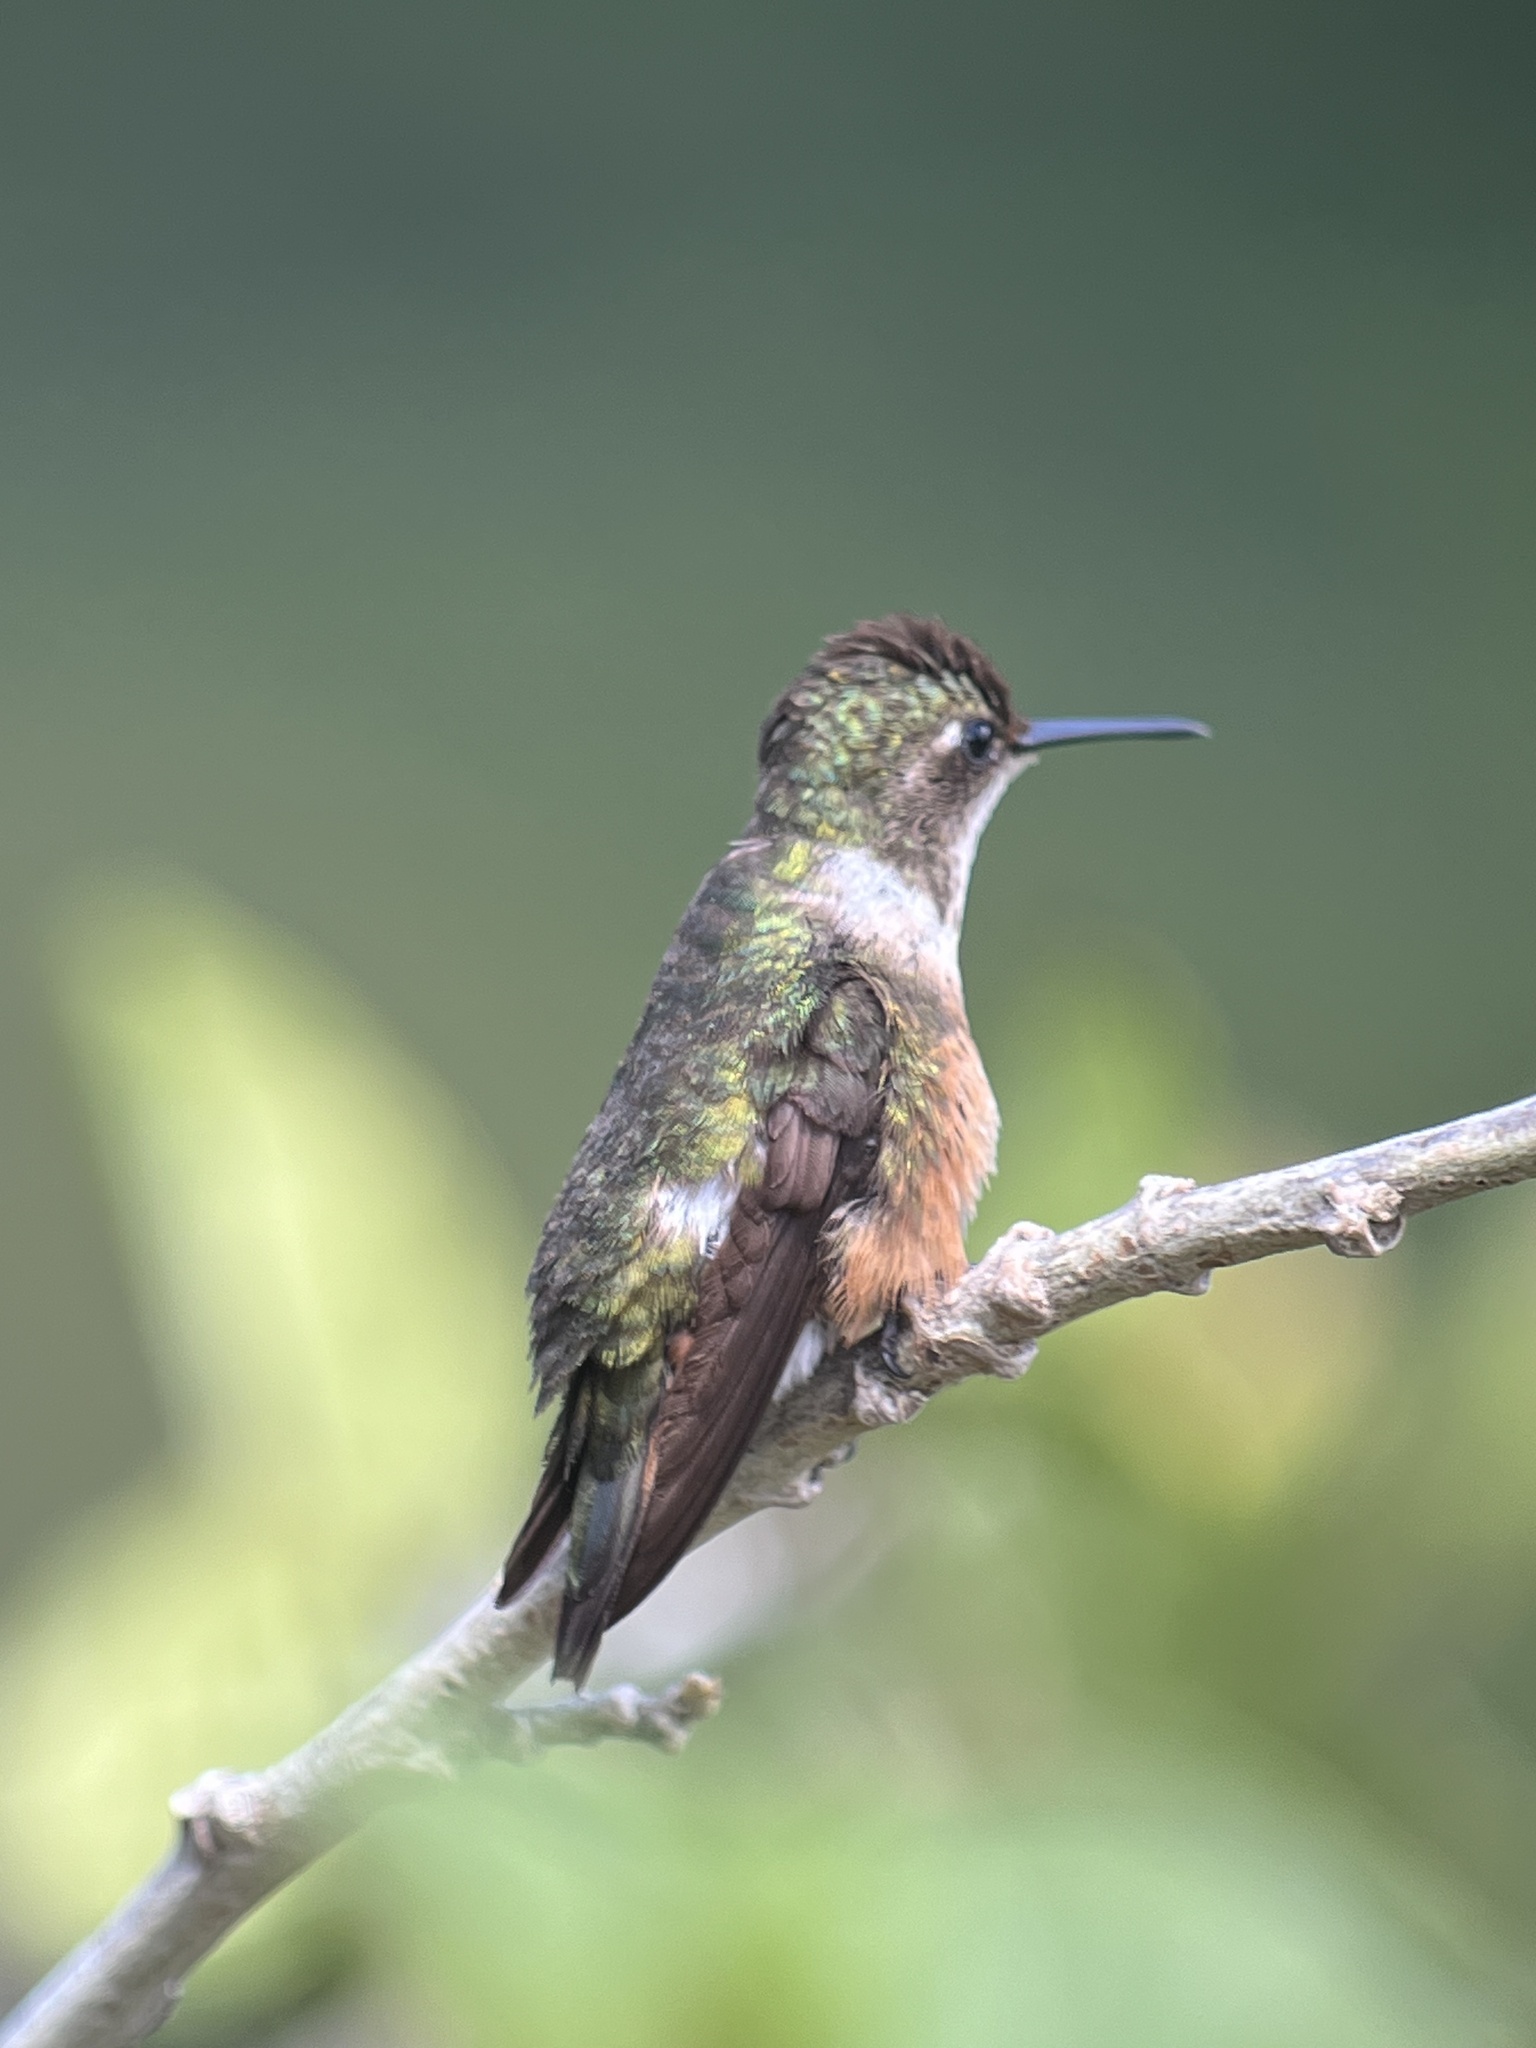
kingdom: Animalia
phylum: Chordata
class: Aves
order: Apodiformes
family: Trochilidae
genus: Calliphlox
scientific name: Calliphlox bryantae
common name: Magenta-throated woodstar
